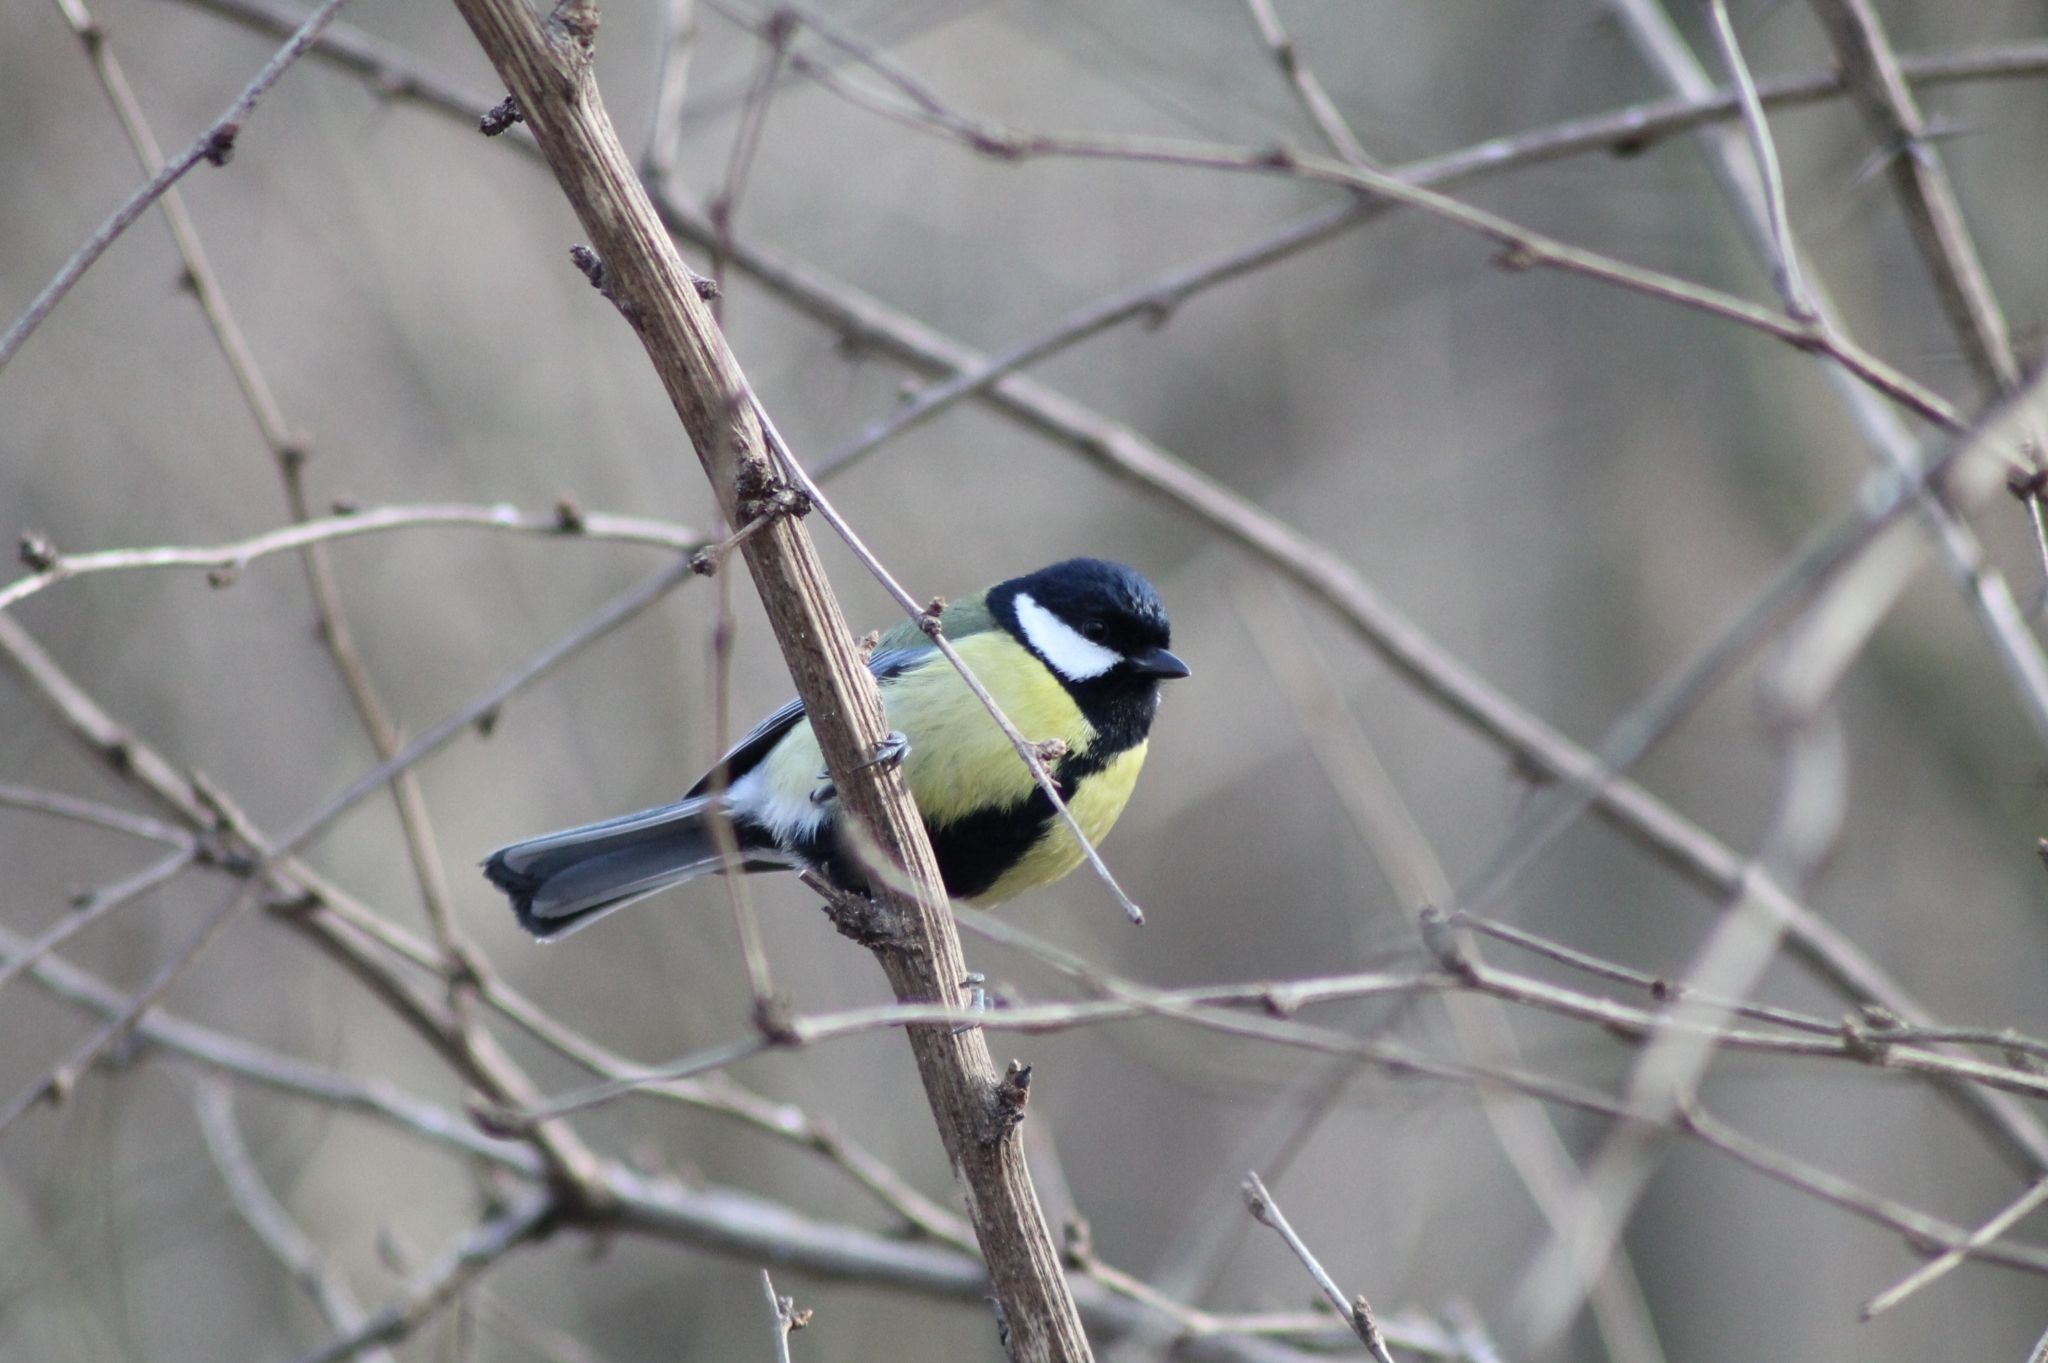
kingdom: Animalia
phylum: Chordata
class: Aves
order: Passeriformes
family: Paridae
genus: Parus
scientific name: Parus major
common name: Great tit
